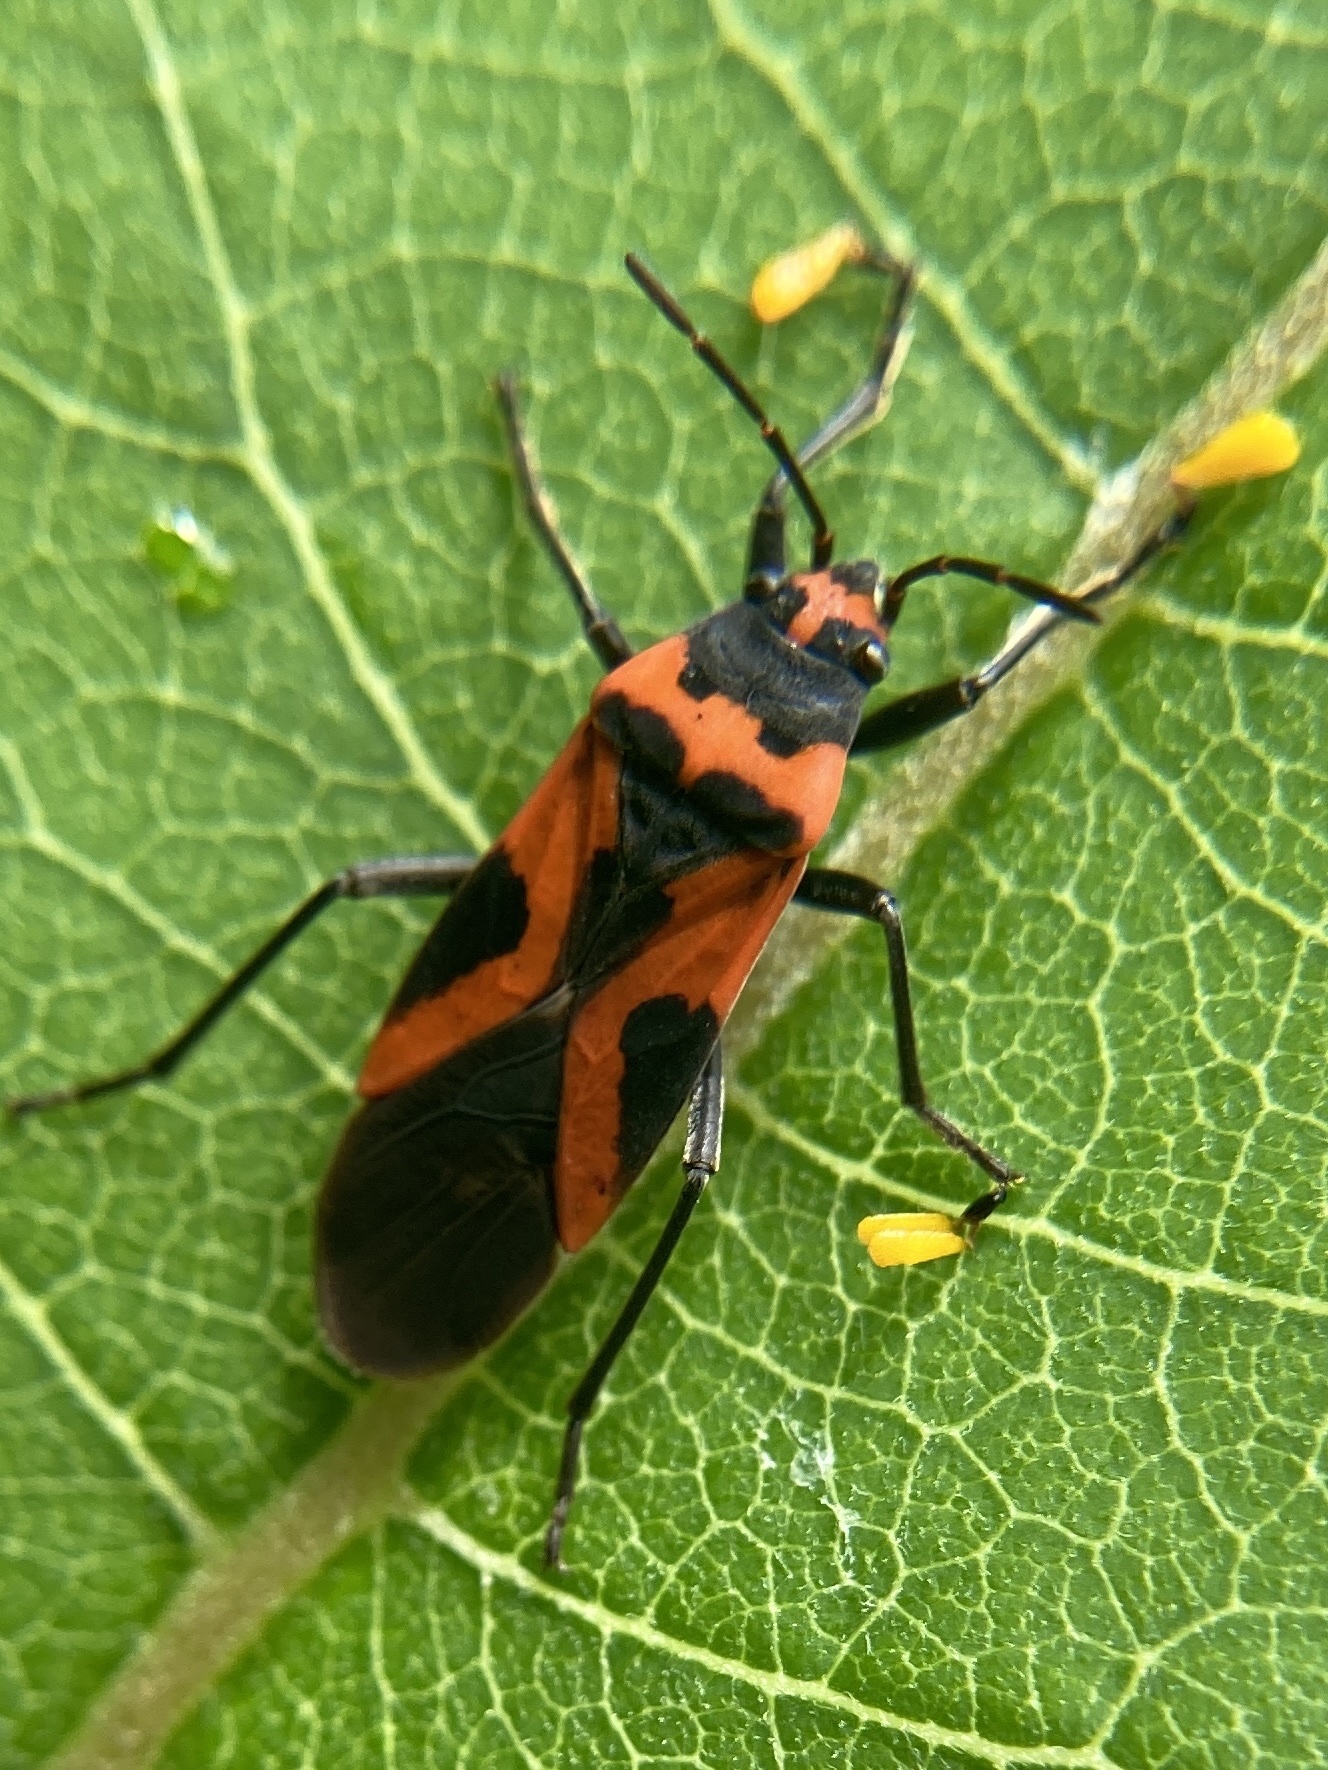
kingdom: Animalia
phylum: Arthropoda
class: Insecta
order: Hemiptera
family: Lygaeidae
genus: Lygaeus
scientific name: Lygaeus turcicus
